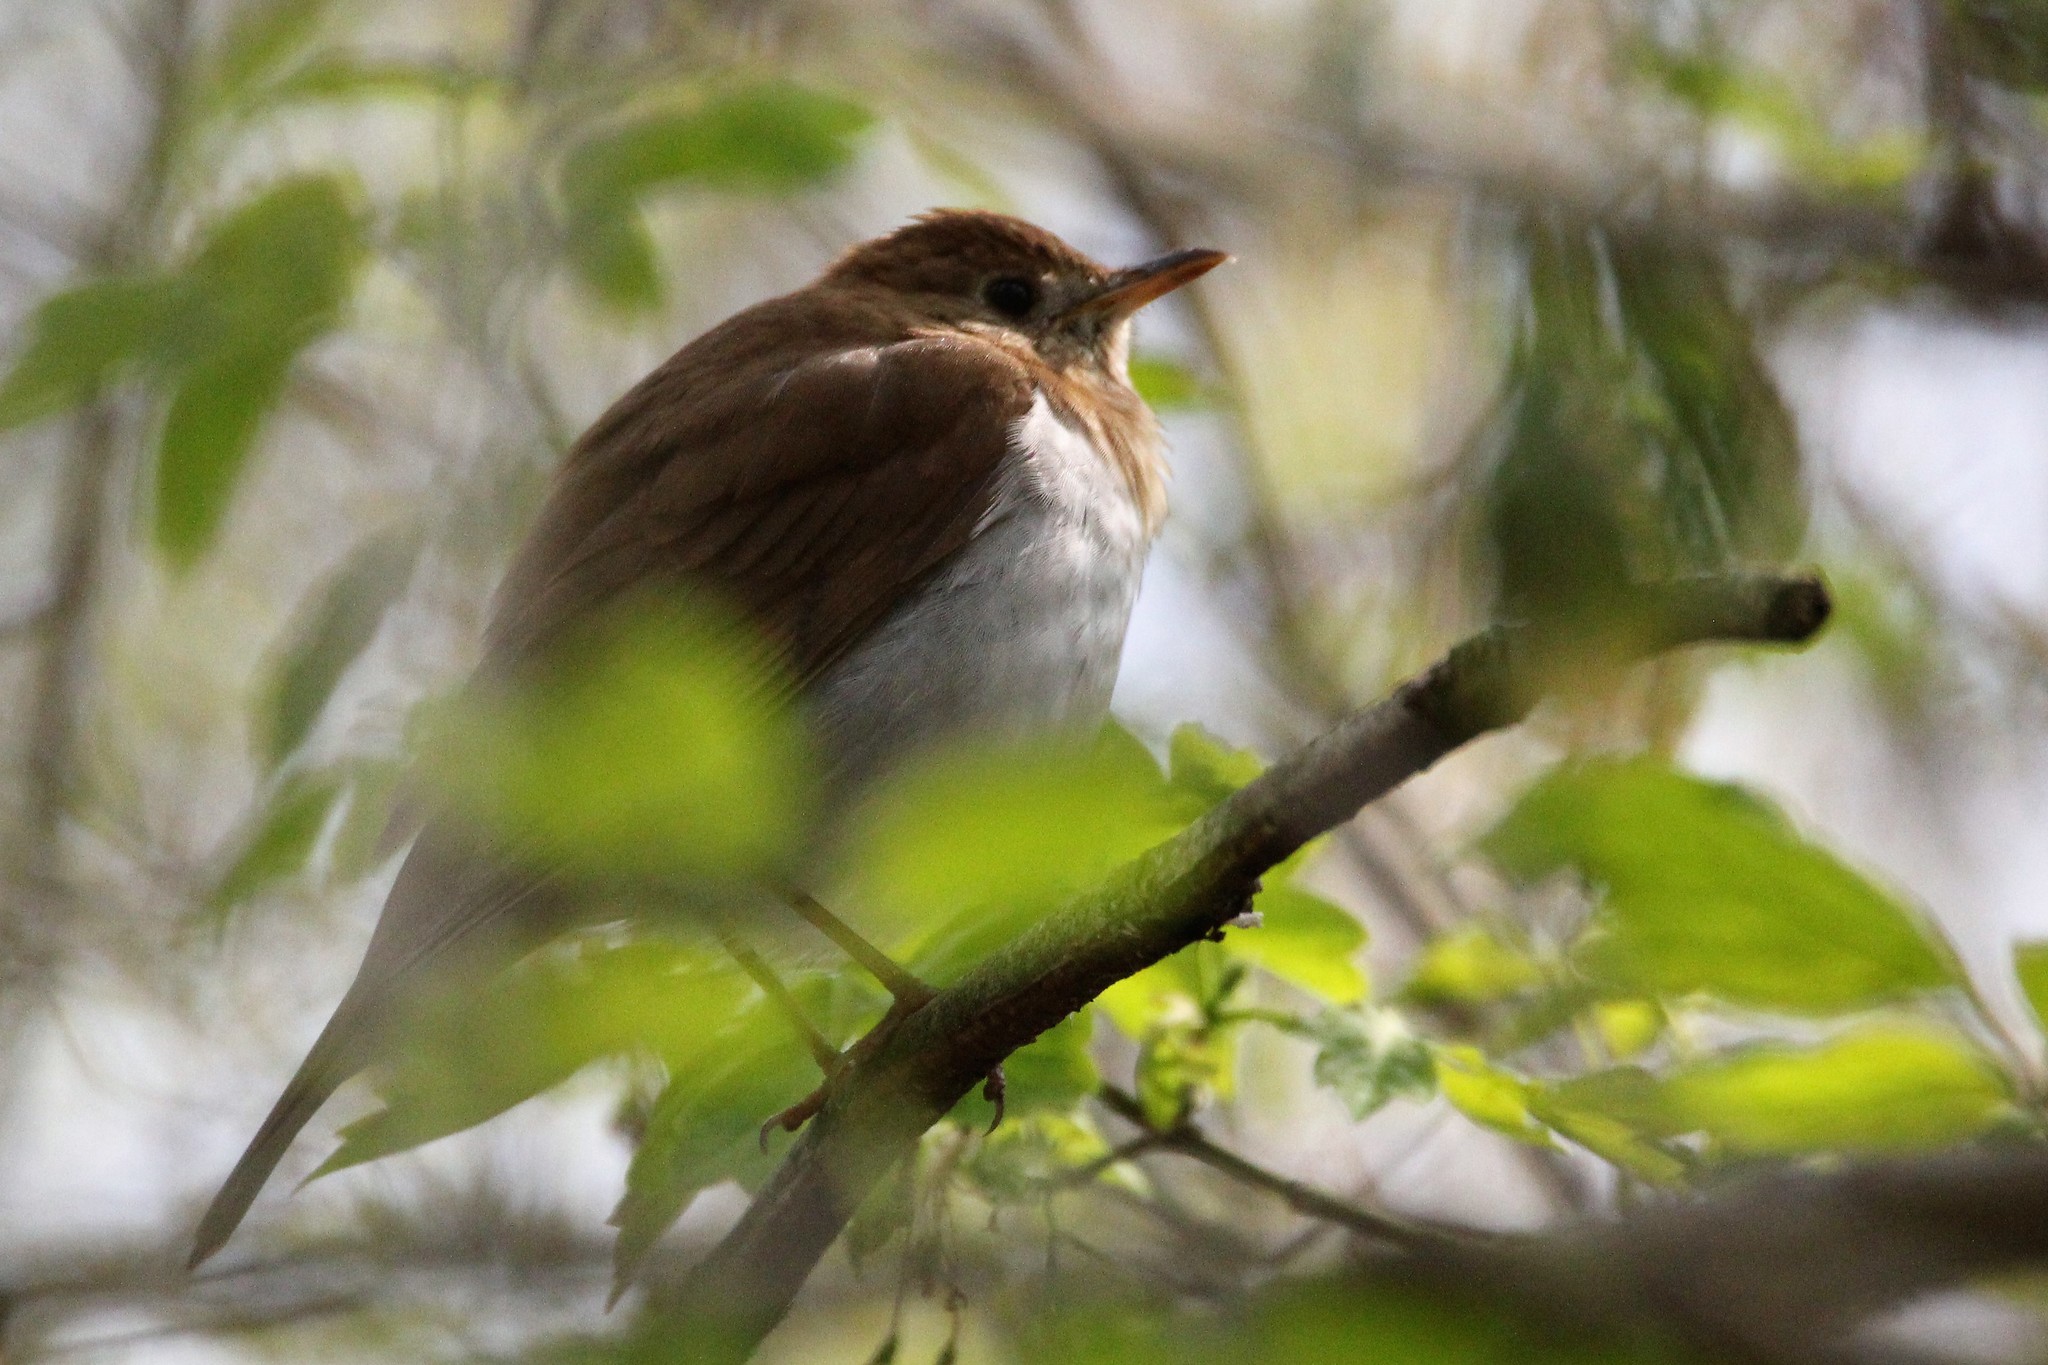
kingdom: Animalia
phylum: Chordata
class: Aves
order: Passeriformes
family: Turdidae
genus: Catharus
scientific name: Catharus fuscescens
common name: Veery
